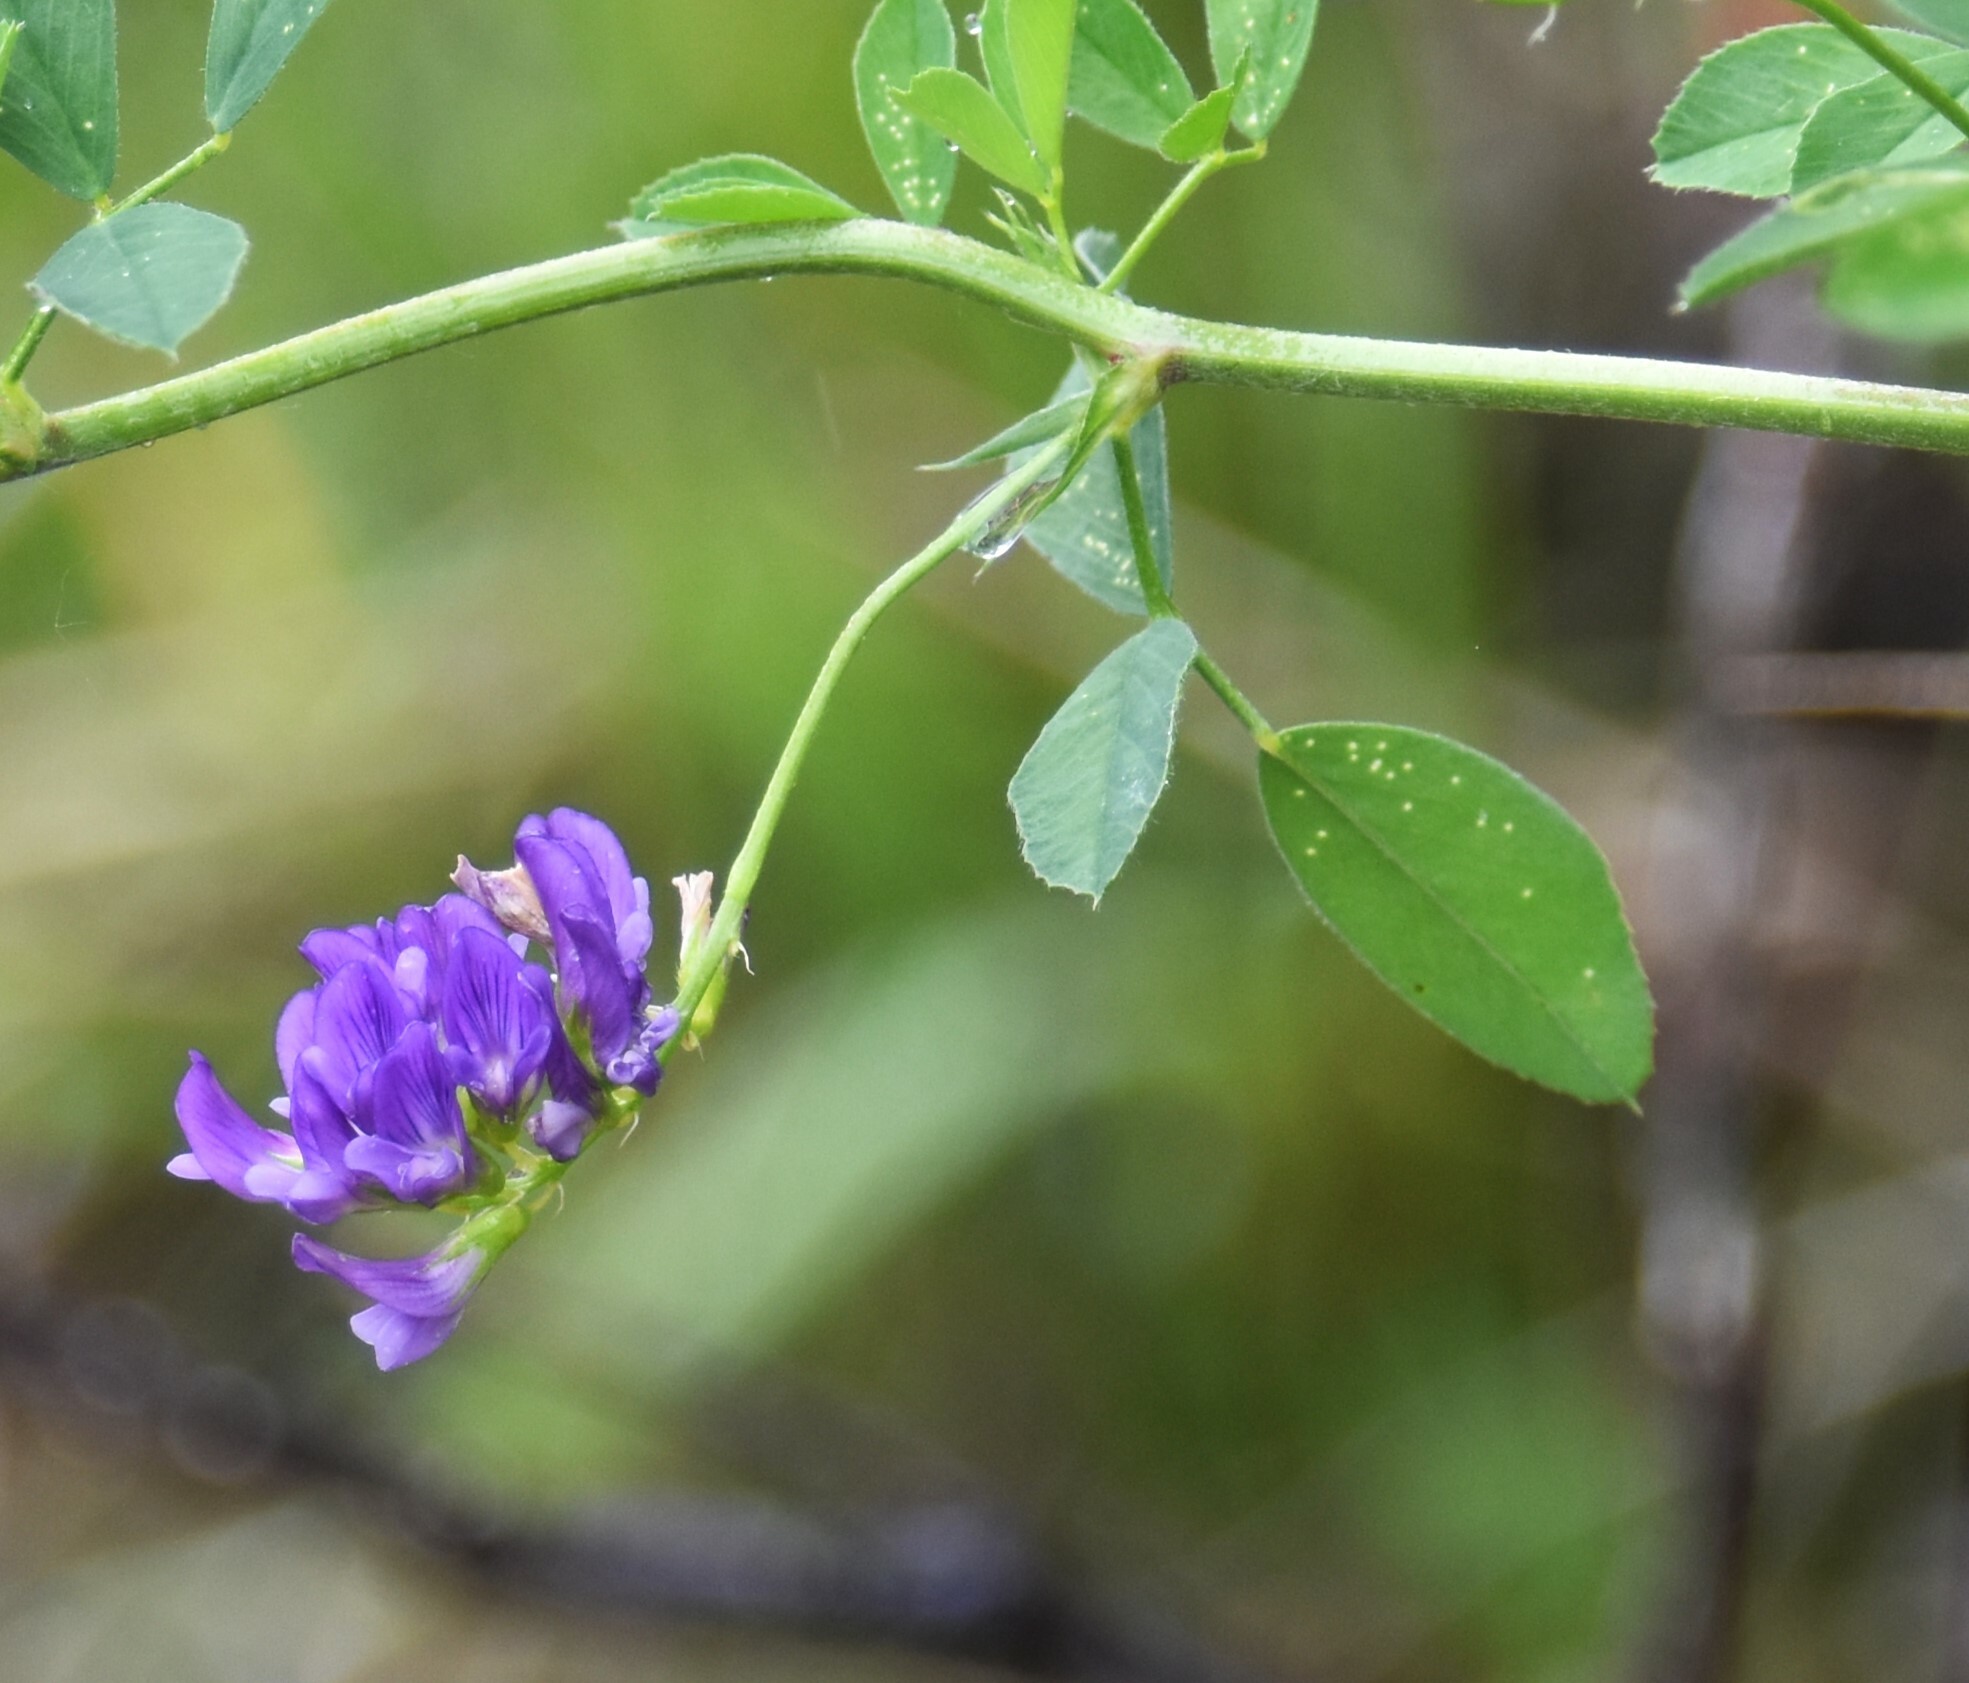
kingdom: Plantae
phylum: Tracheophyta
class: Magnoliopsida
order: Fabales
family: Fabaceae
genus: Medicago
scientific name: Medicago sativa
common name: Alfalfa
